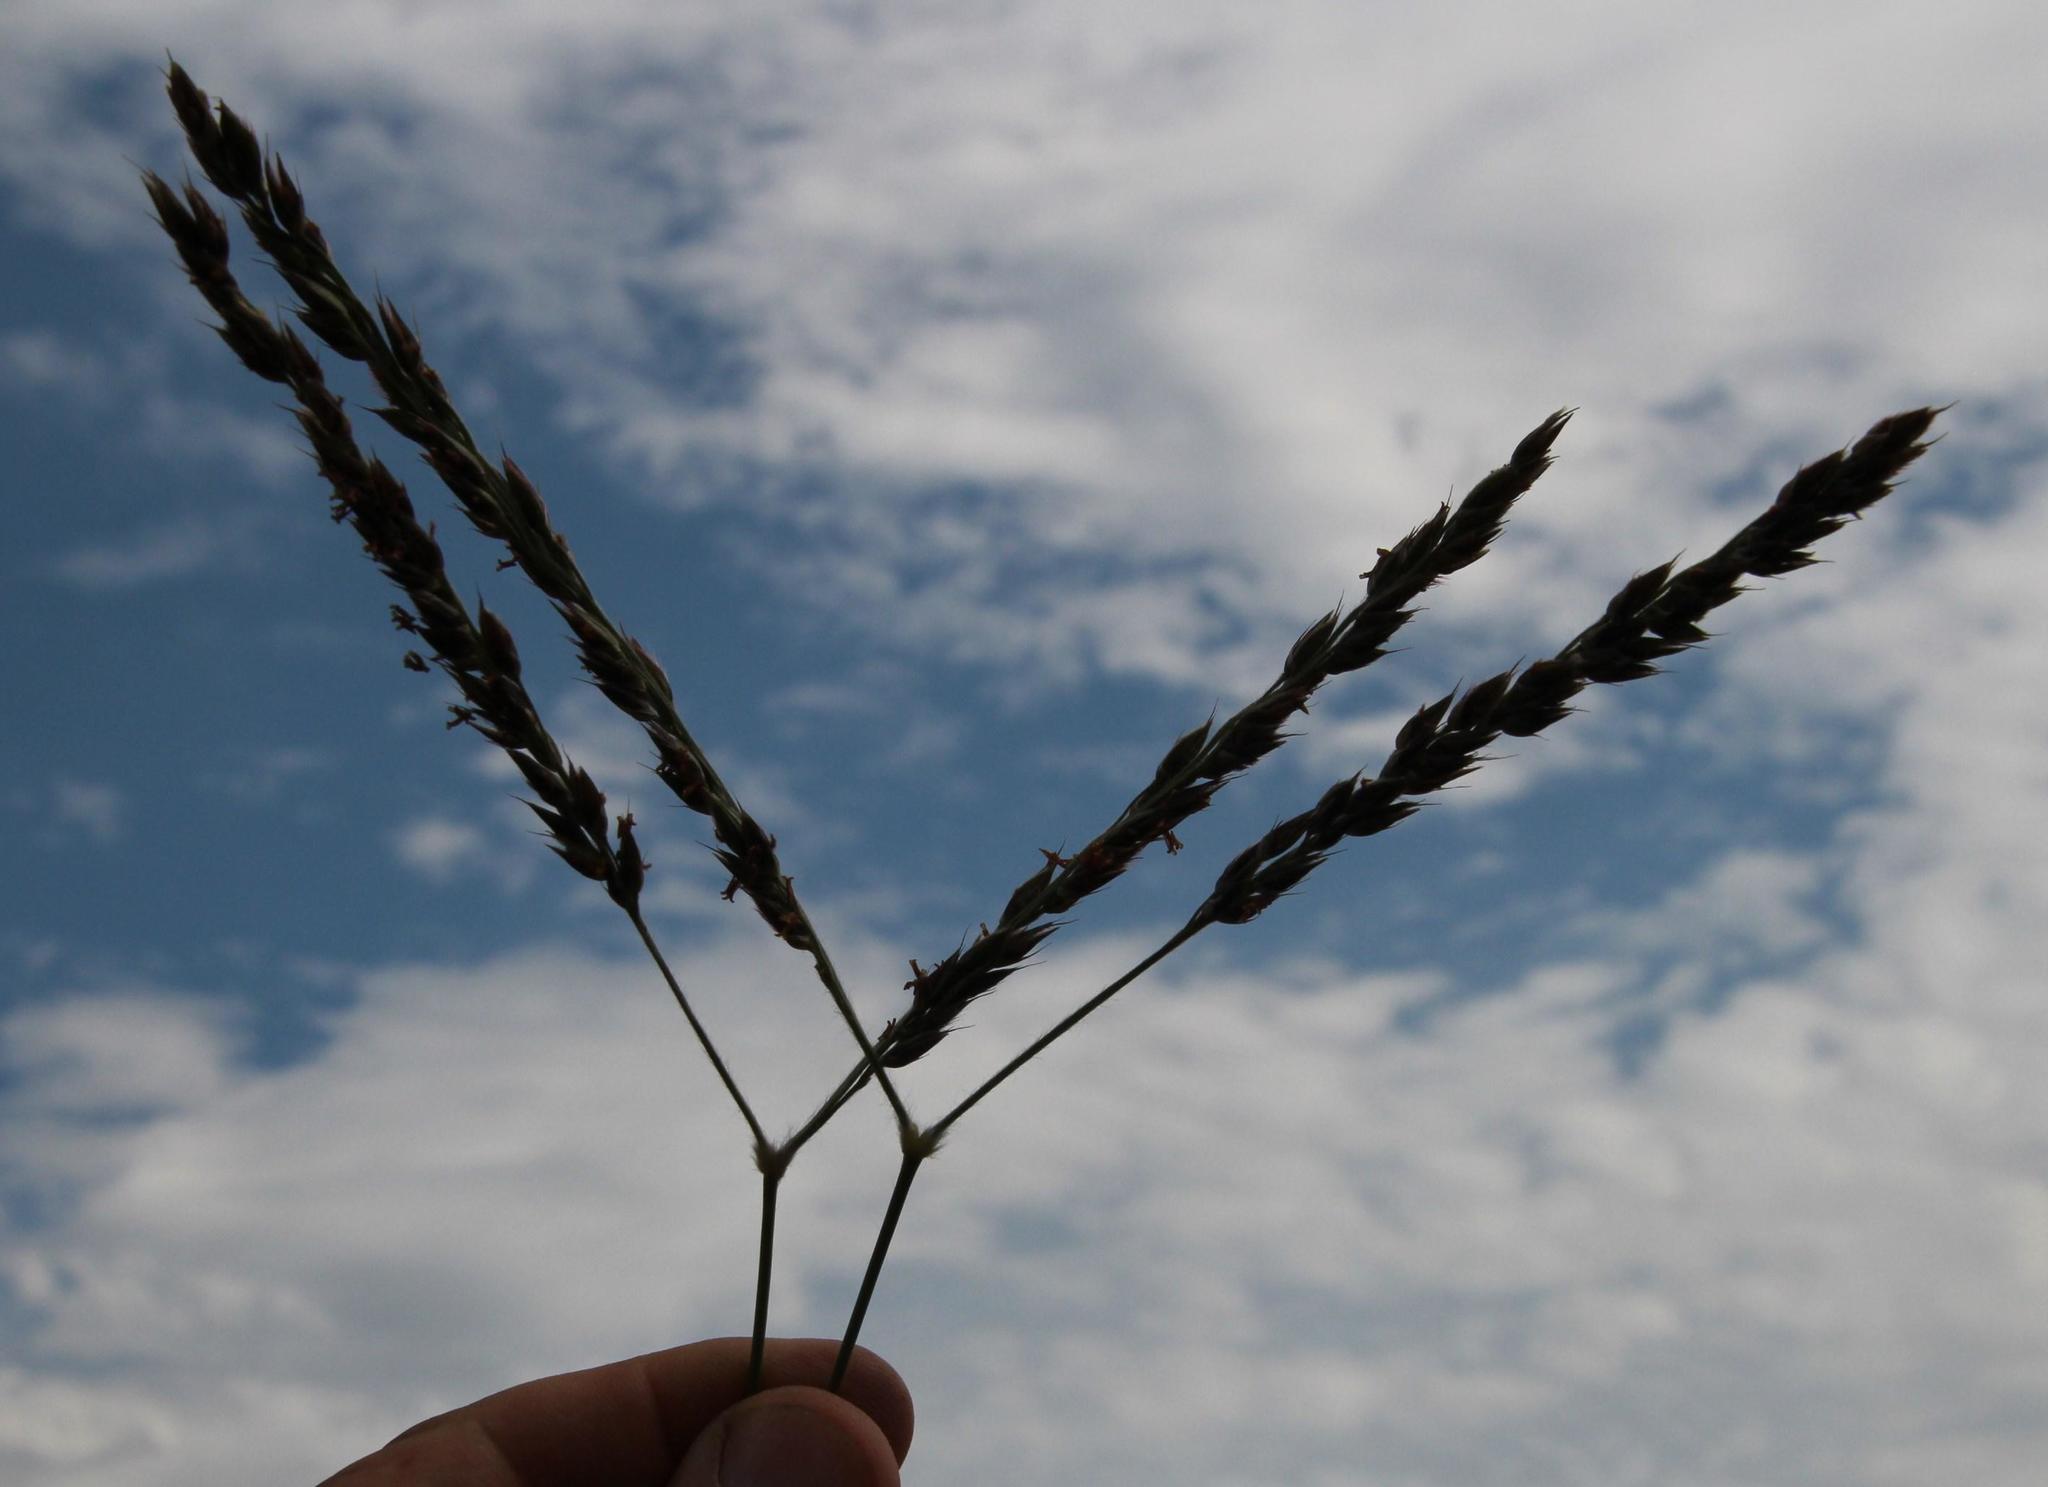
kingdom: Plantae
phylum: Tracheophyta
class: Liliopsida
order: Poales
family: Poaceae
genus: Alloteropsis
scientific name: Alloteropsis semialata
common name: Cockatoo grass
